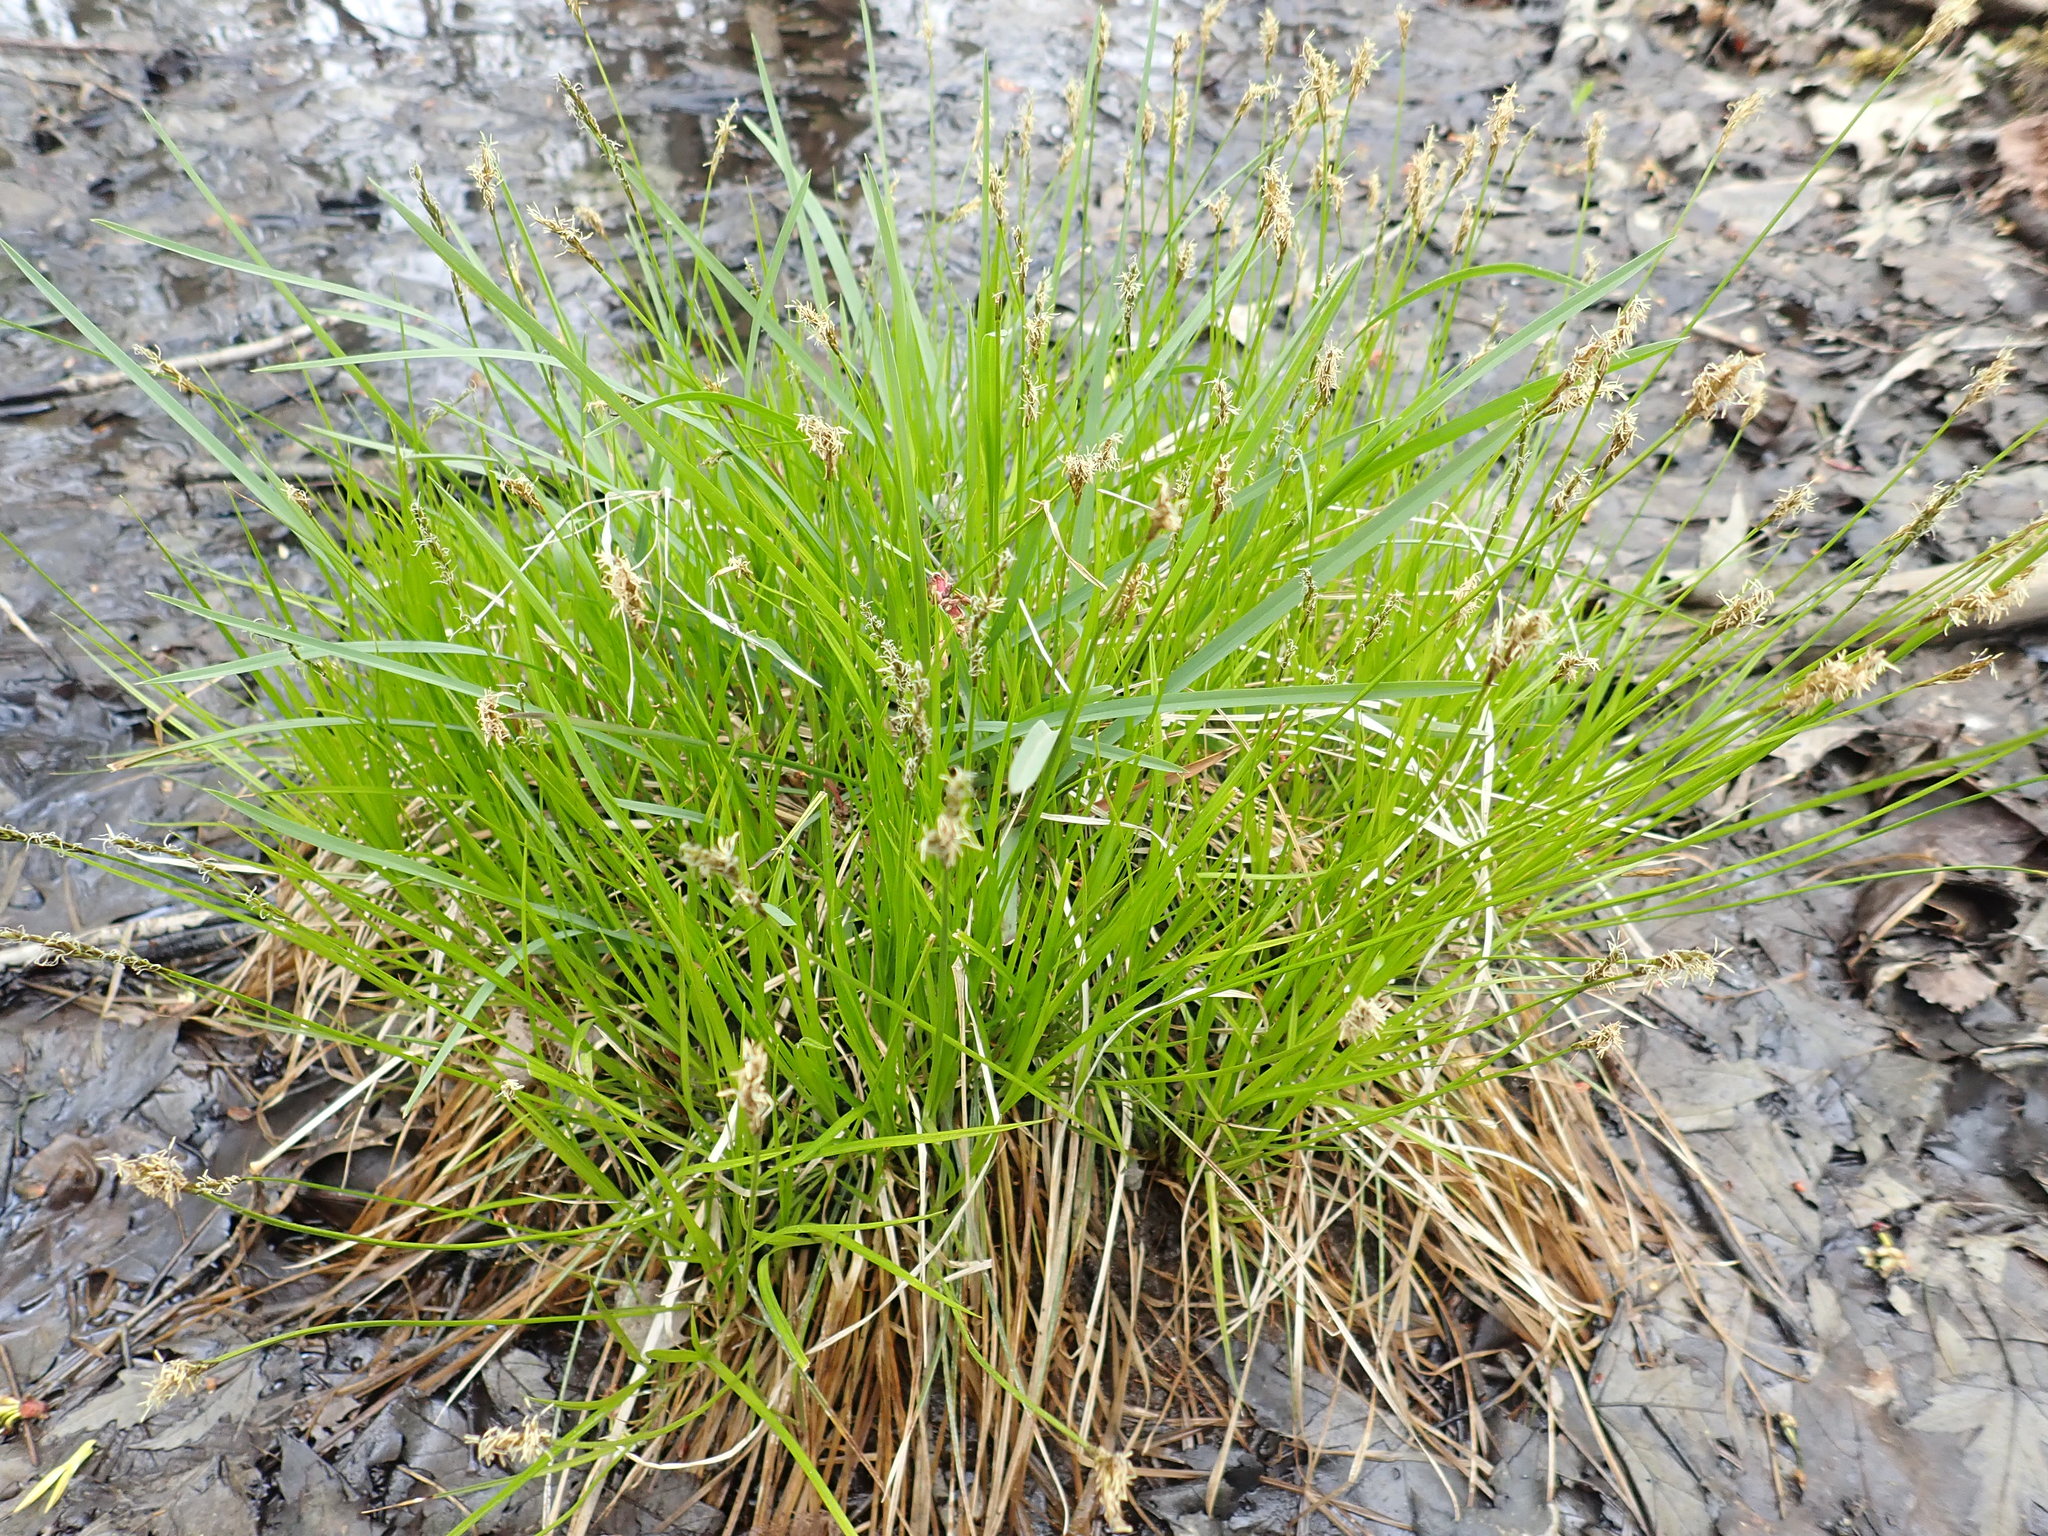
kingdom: Plantae
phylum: Tracheophyta
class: Liliopsida
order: Poales
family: Cyperaceae
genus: Carex
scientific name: Carex bromoides
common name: Brome hummock sedge
